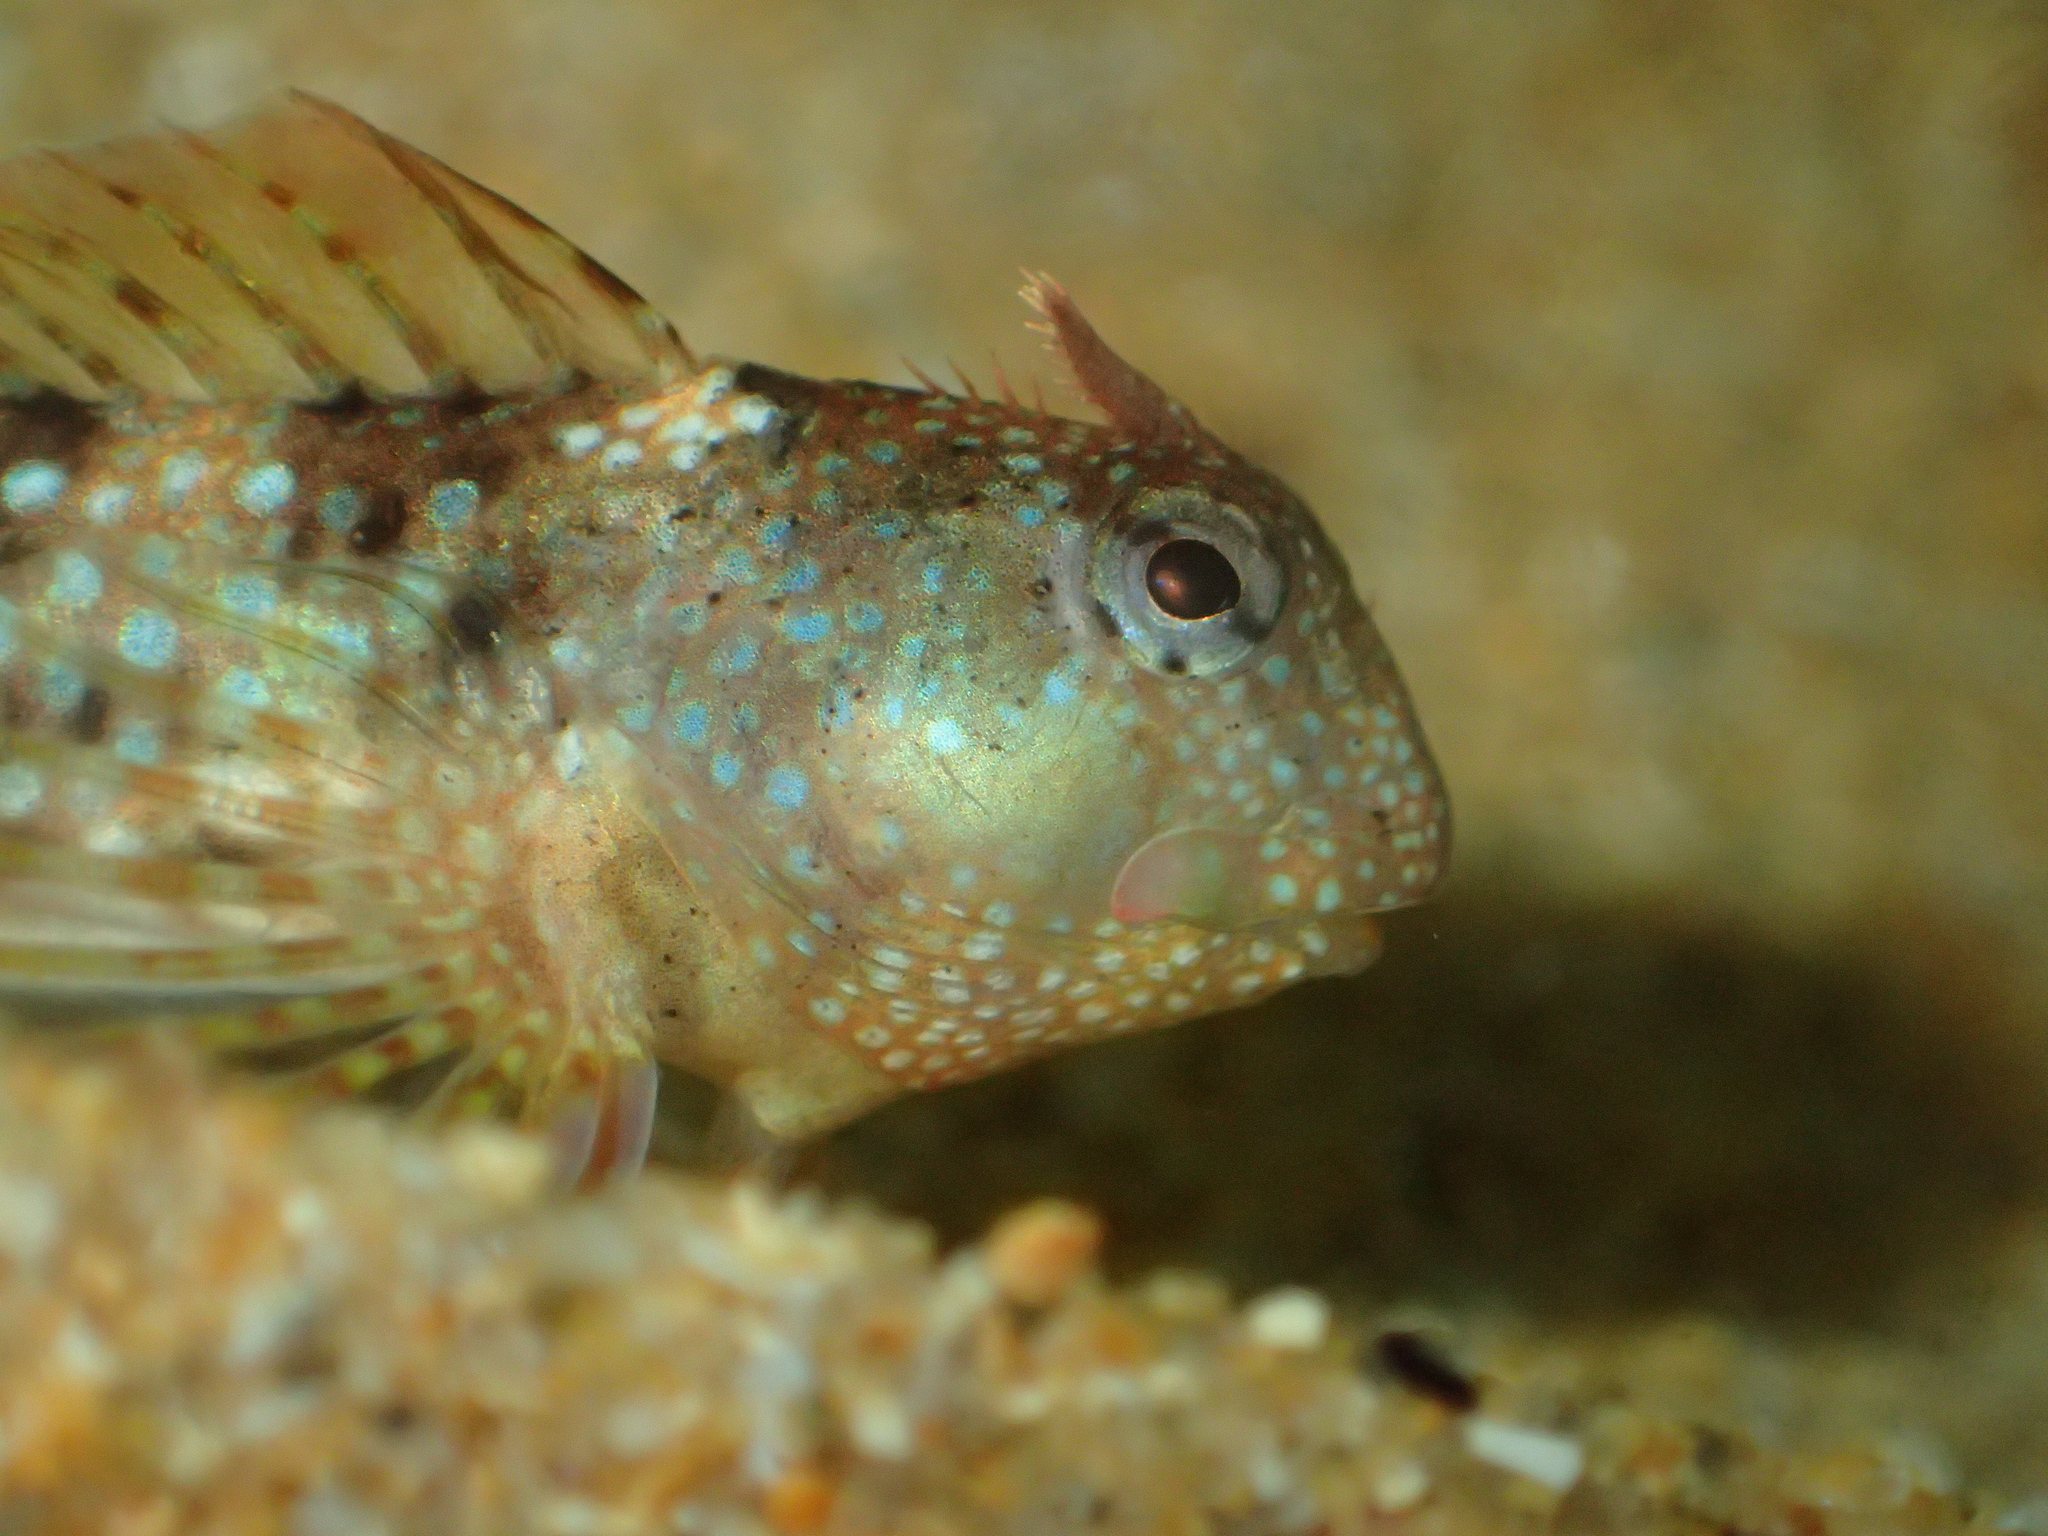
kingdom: Animalia
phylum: Chordata
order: Perciformes
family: Blenniidae
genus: Coryphoblennius
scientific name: Coryphoblennius galerita
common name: Montagu's blenny
